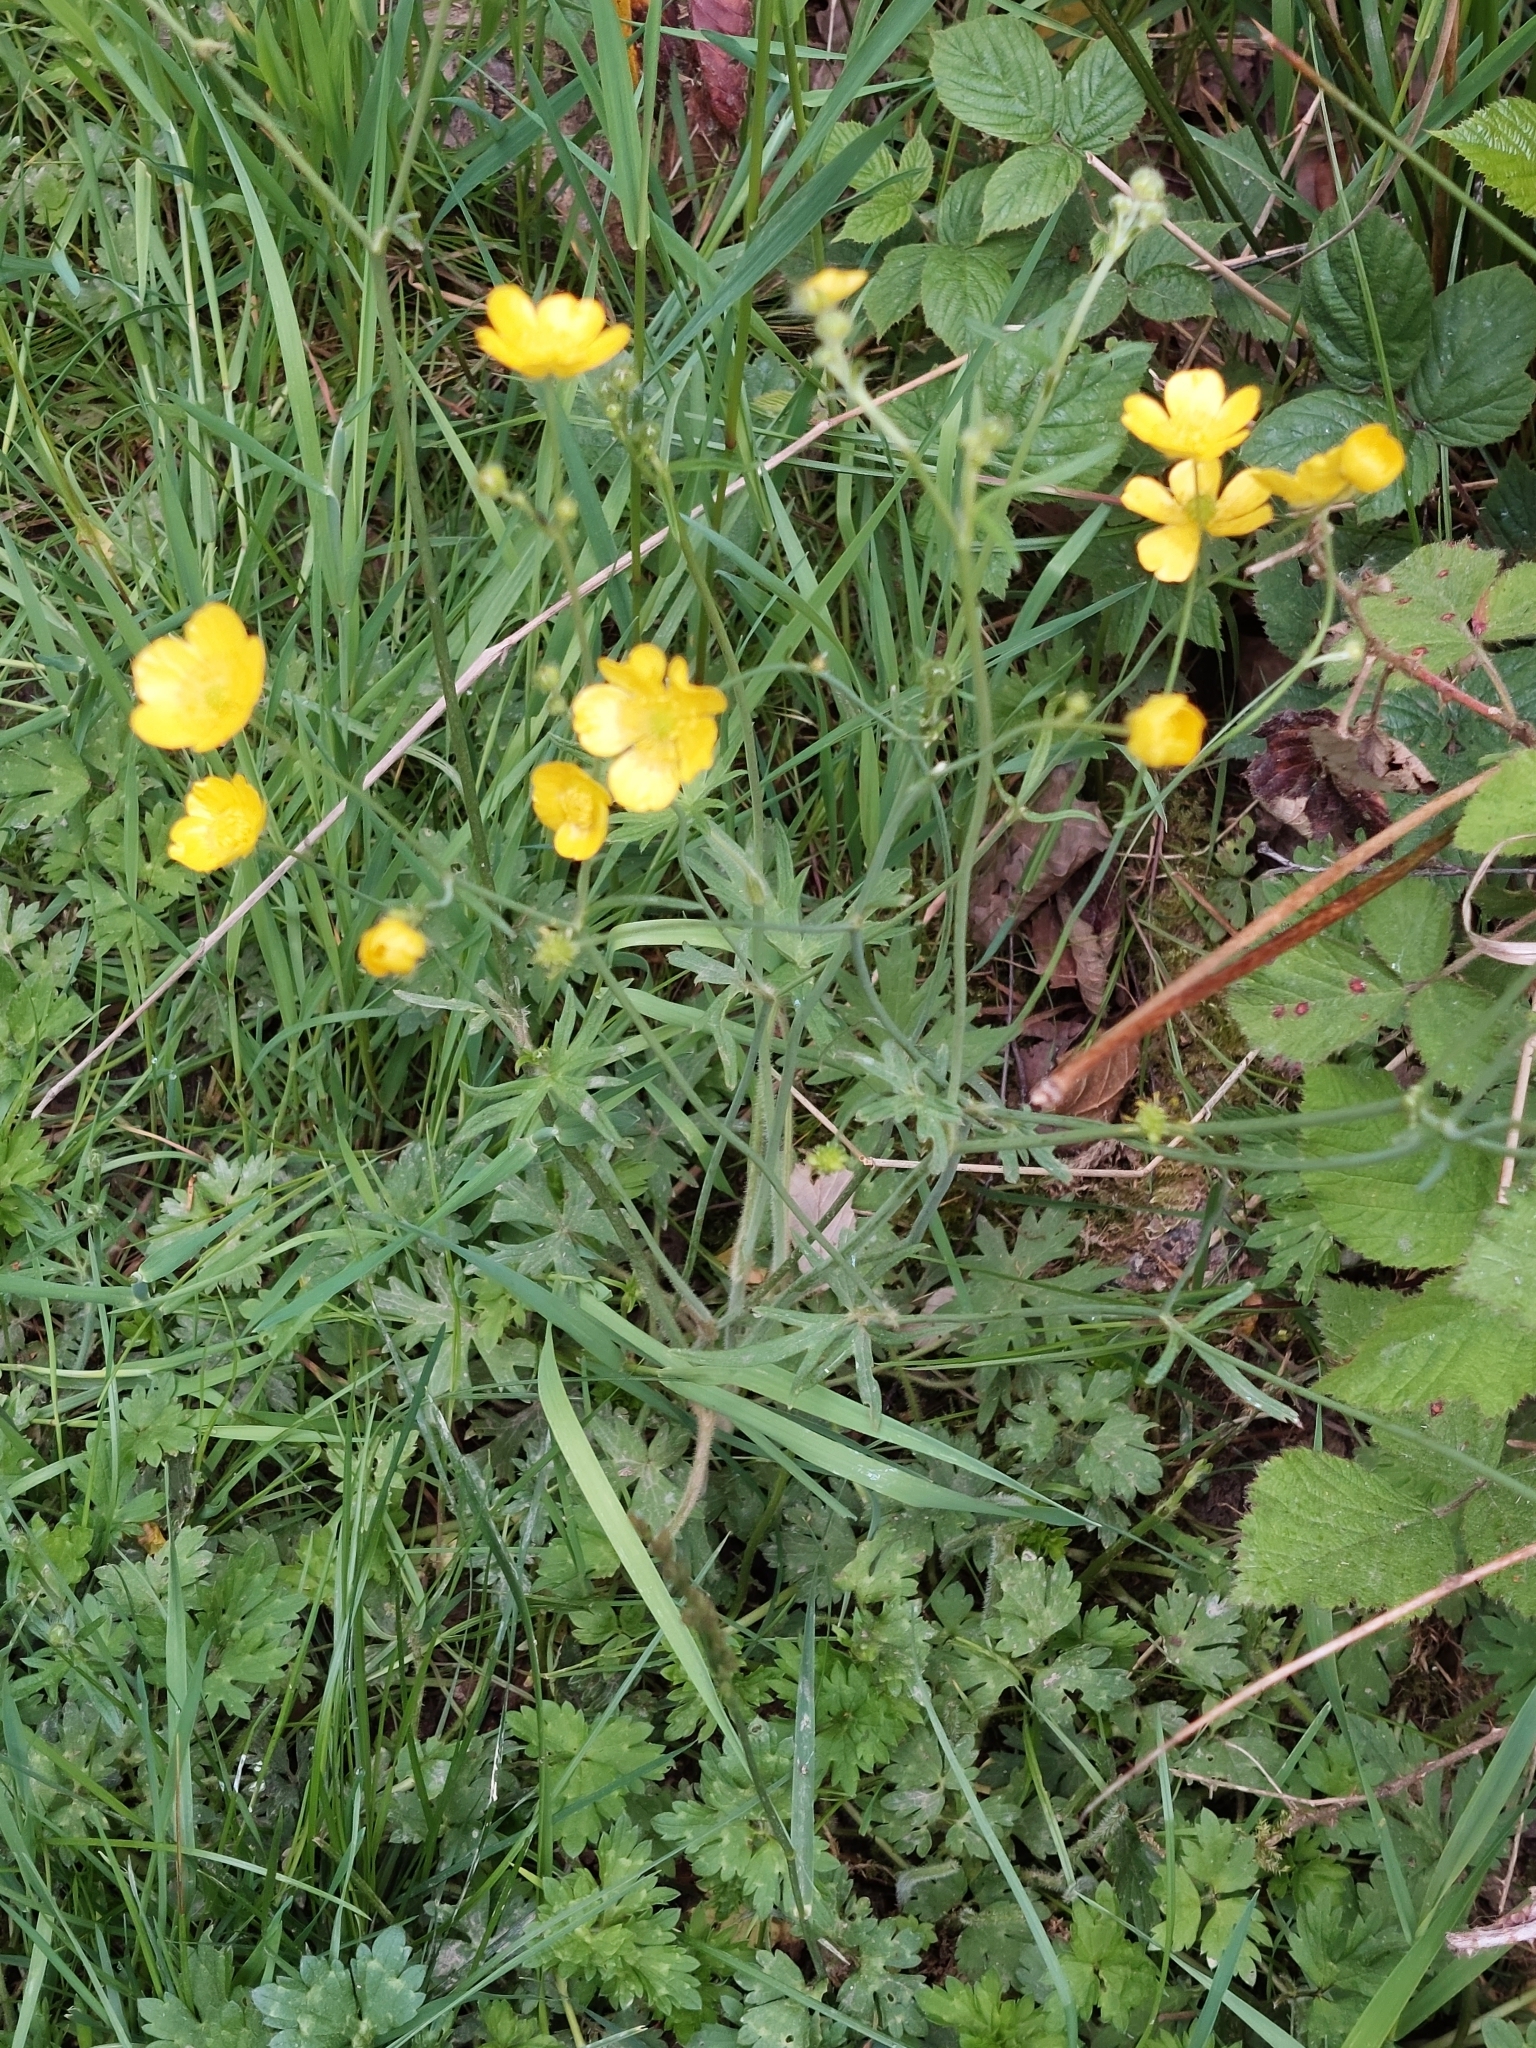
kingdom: Plantae
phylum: Tracheophyta
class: Magnoliopsida
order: Ranunculales
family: Ranunculaceae
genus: Ranunculus
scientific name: Ranunculus acris
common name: Meadow buttercup
